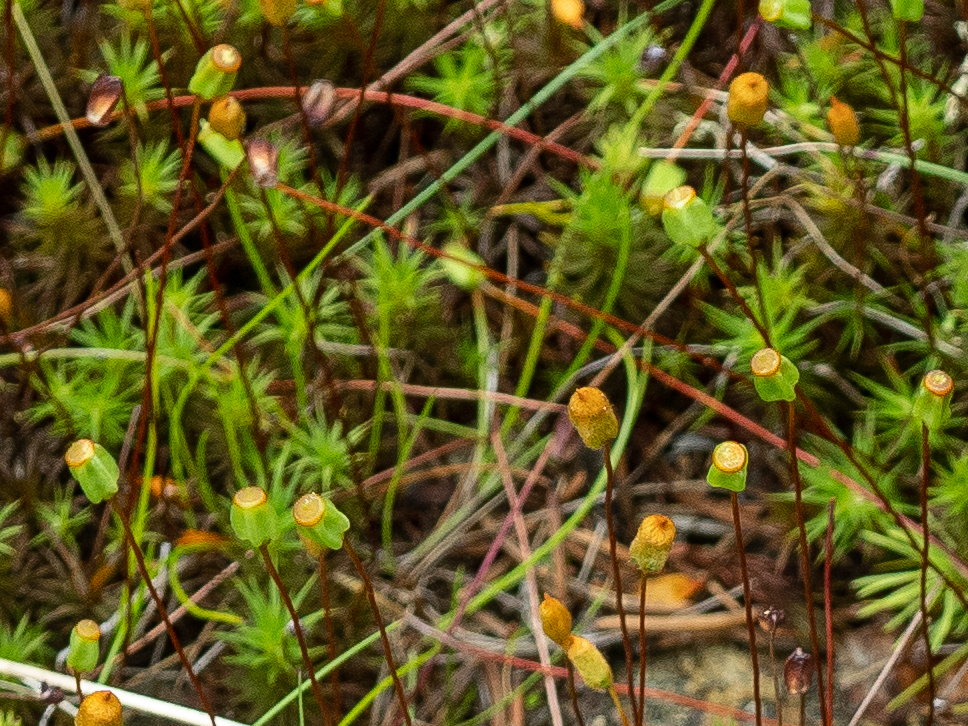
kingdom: Plantae
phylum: Bryophyta
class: Polytrichopsida
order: Polytrichales
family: Polytrichaceae
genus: Polytrichum
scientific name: Polytrichum commune
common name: Common haircap
